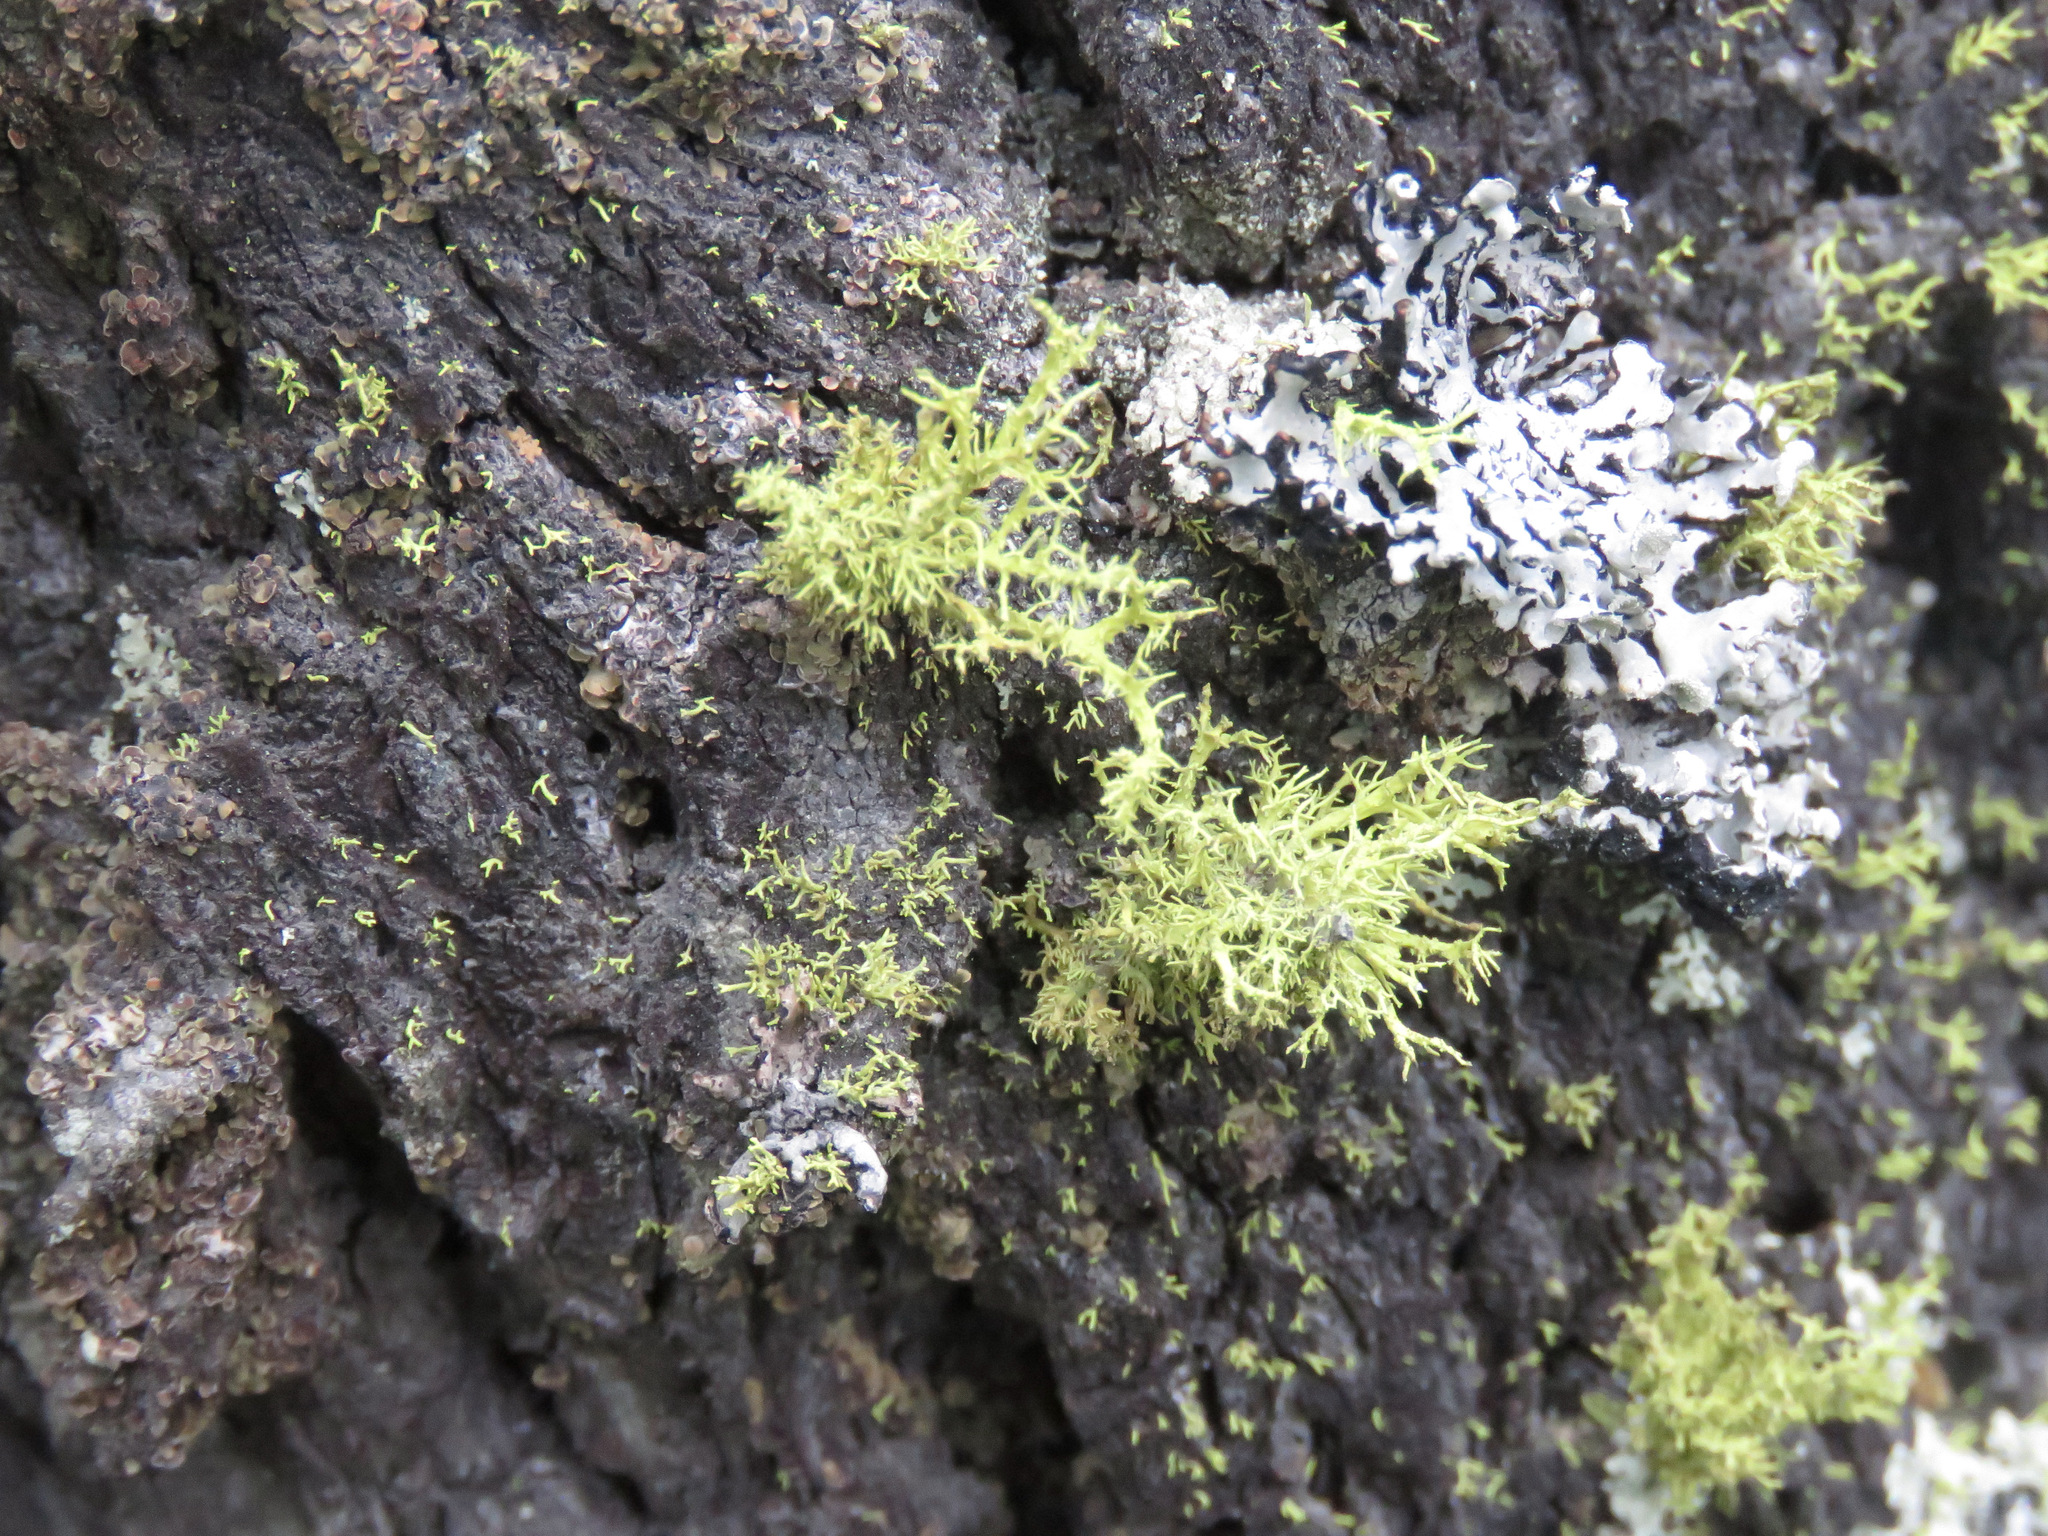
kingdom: Fungi
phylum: Ascomycota
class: Lecanoromycetes
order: Lecanorales
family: Parmeliaceae
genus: Letharia
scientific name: Letharia vulpina
